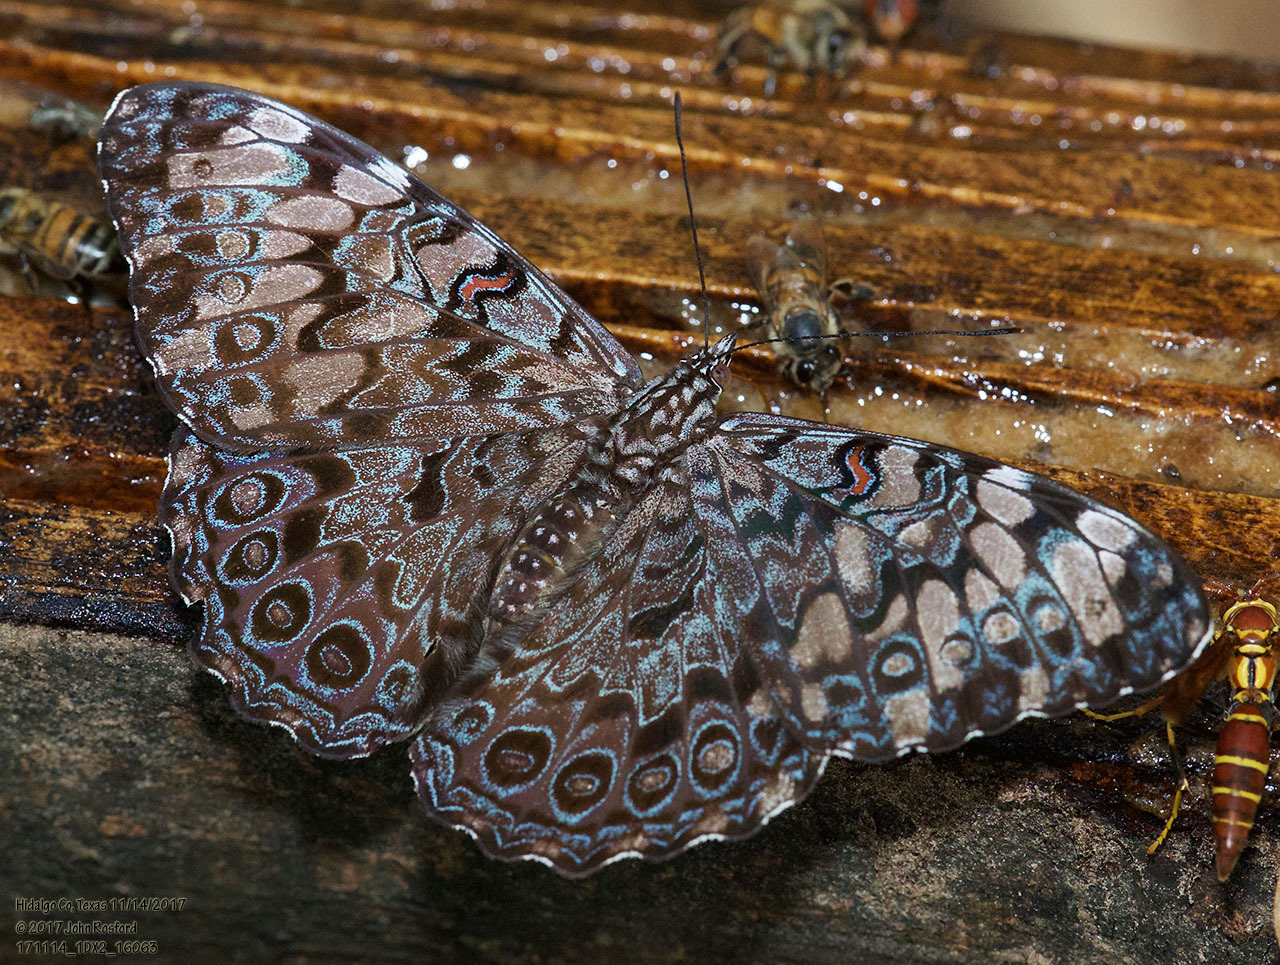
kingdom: Animalia
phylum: Arthropoda
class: Insecta
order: Lepidoptera
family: Nymphalidae
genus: Hamadryas
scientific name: Hamadryas guatemalena
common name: Guatemalan cracker
